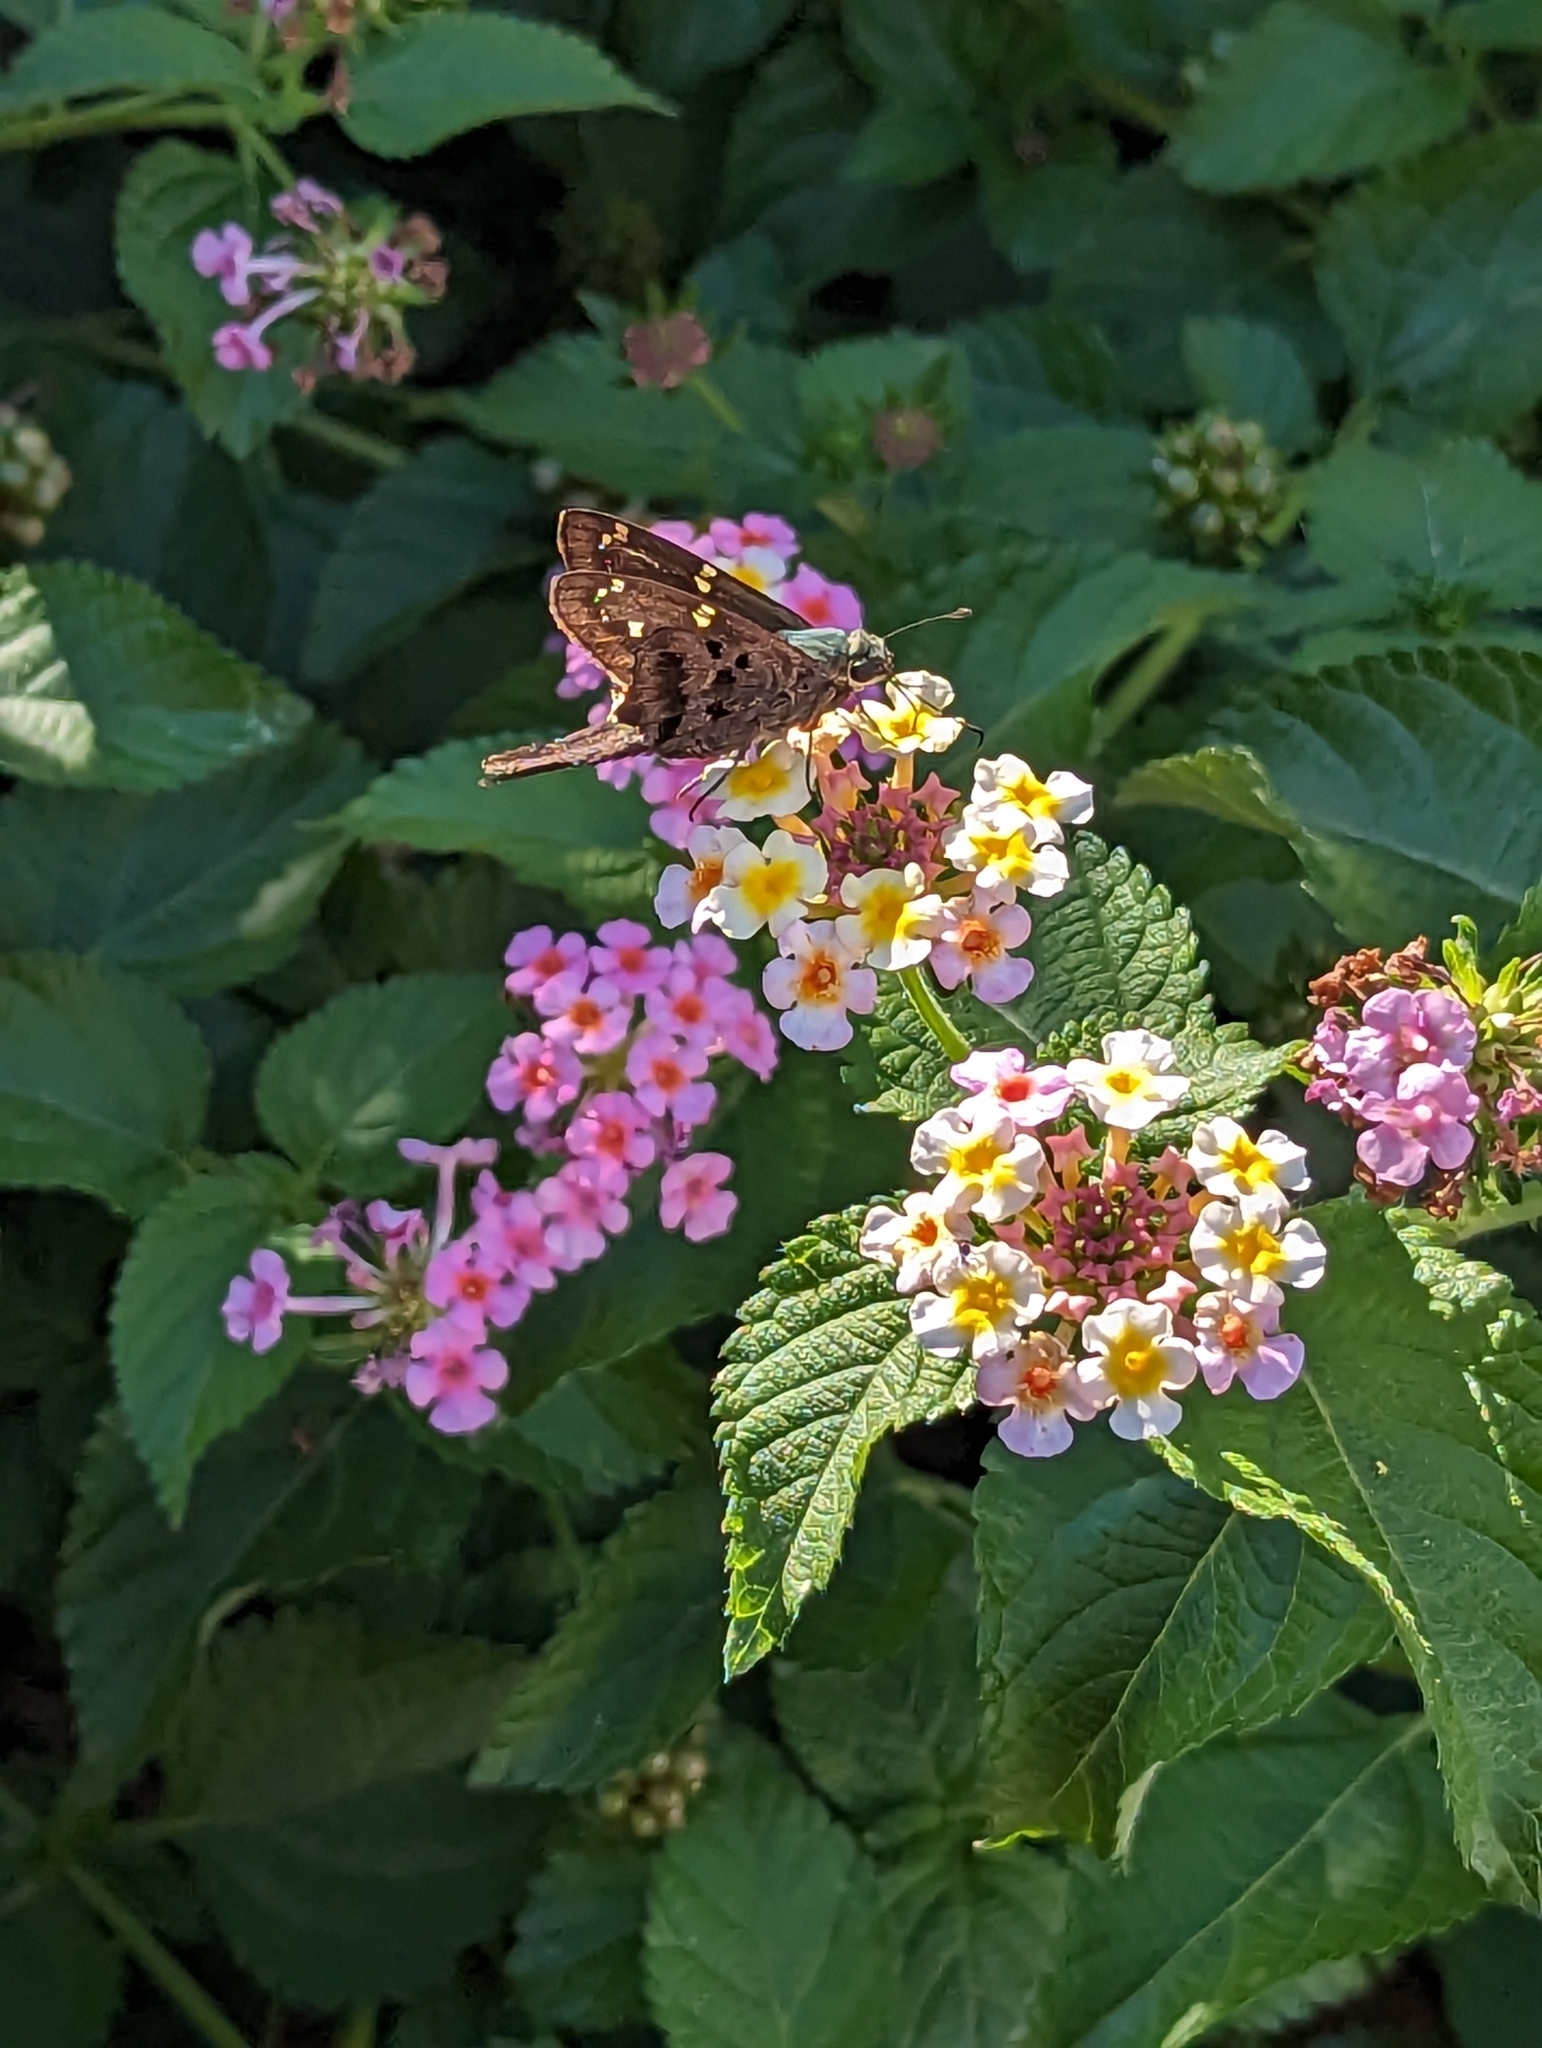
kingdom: Animalia
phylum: Arthropoda
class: Insecta
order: Lepidoptera
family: Hesperiidae
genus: Urbanus
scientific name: Urbanus proteus
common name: Long-tailed skipper
